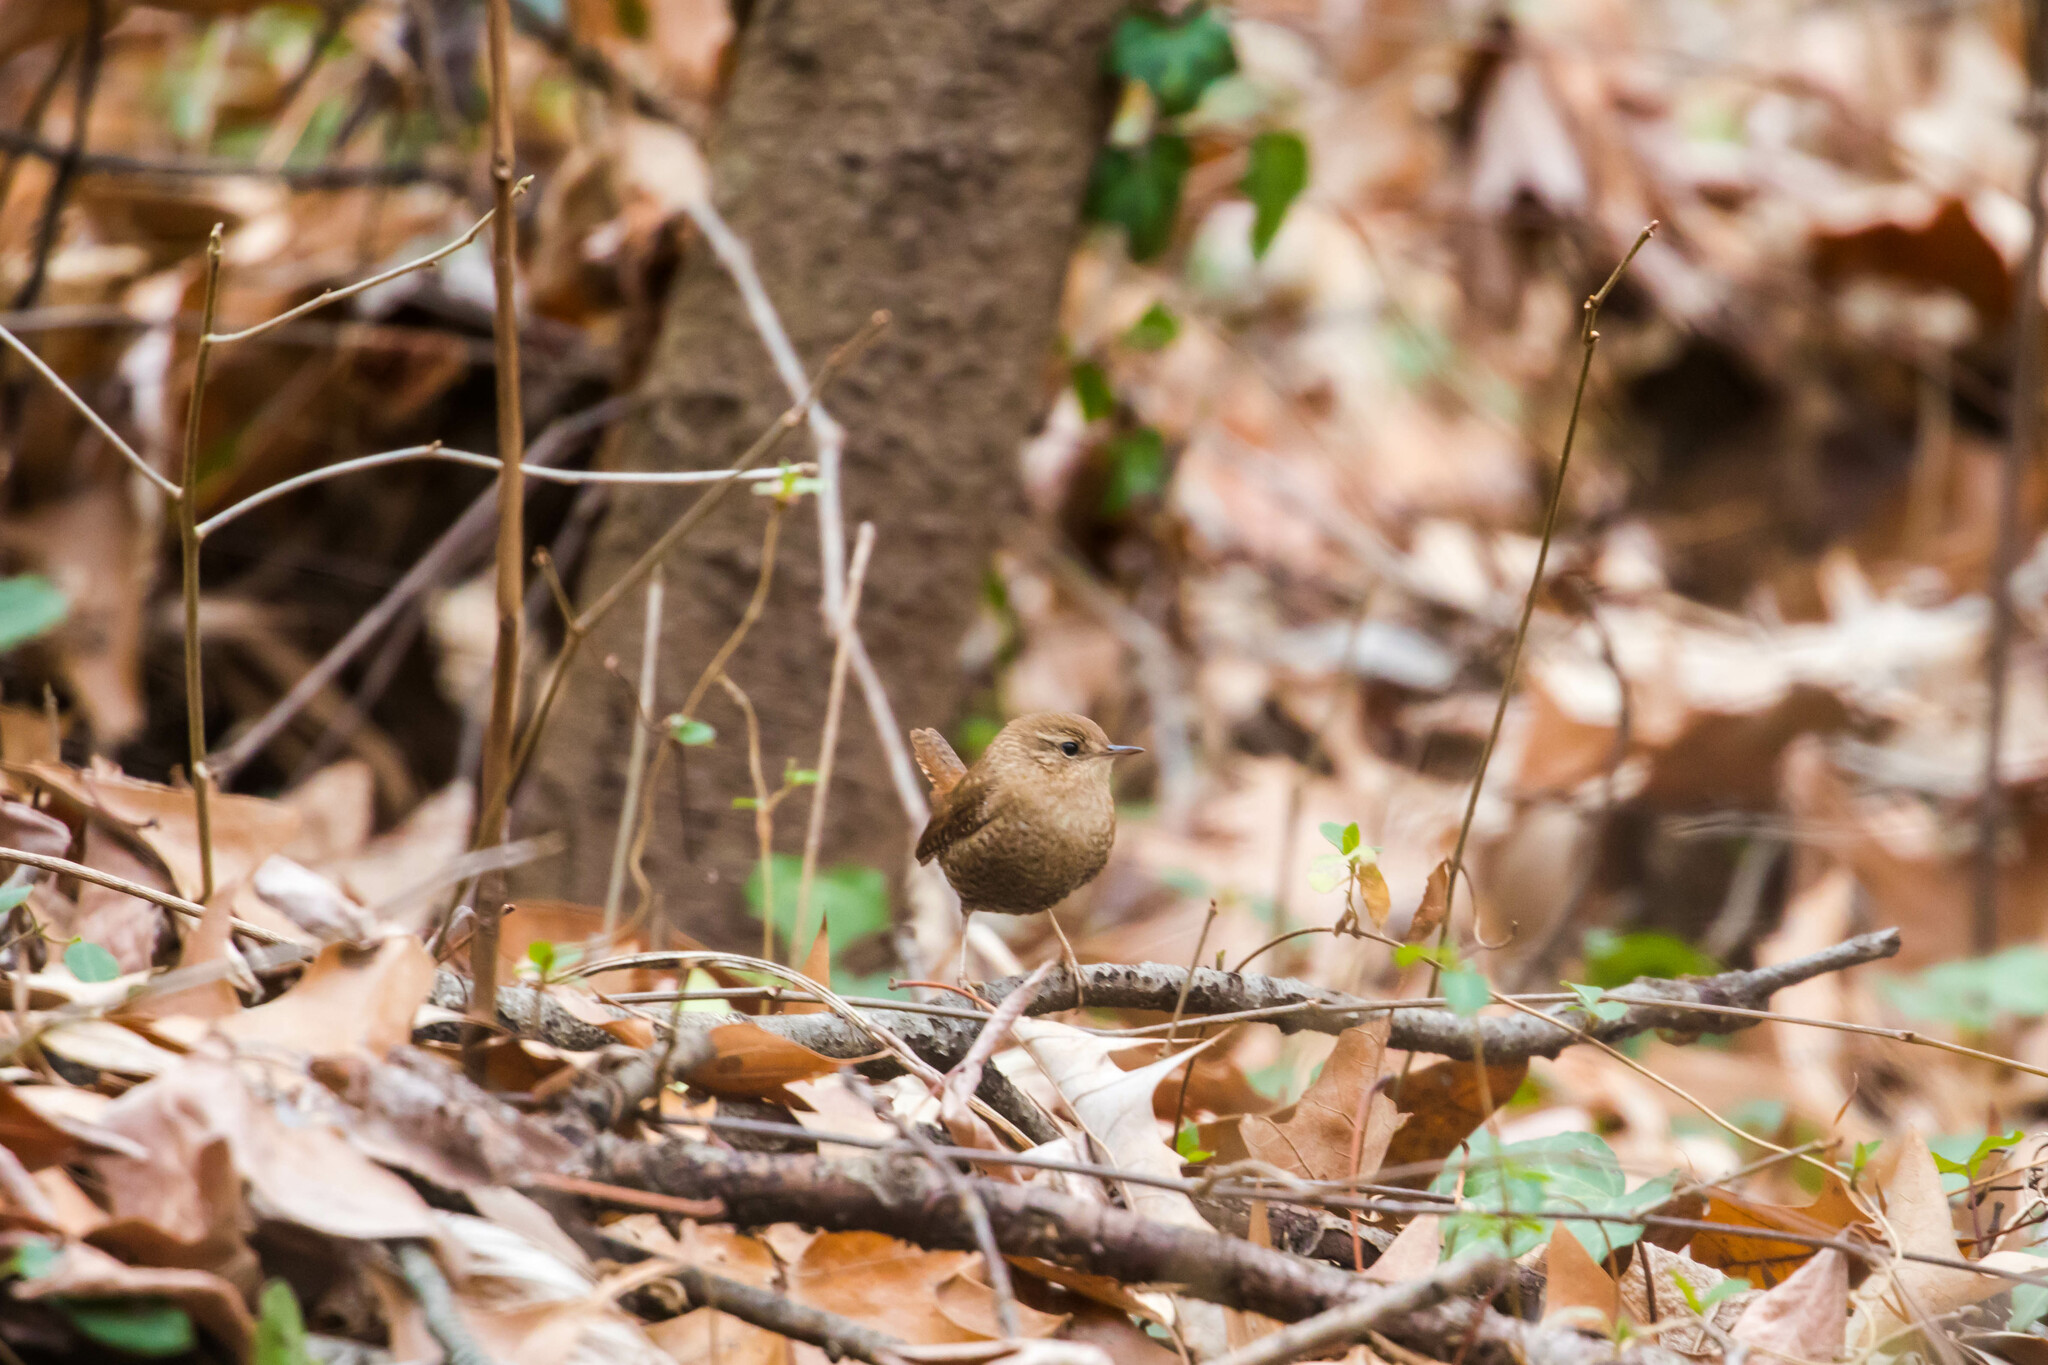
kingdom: Animalia
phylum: Chordata
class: Aves
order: Passeriformes
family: Troglodytidae
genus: Troglodytes
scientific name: Troglodytes hiemalis
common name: Winter wren
